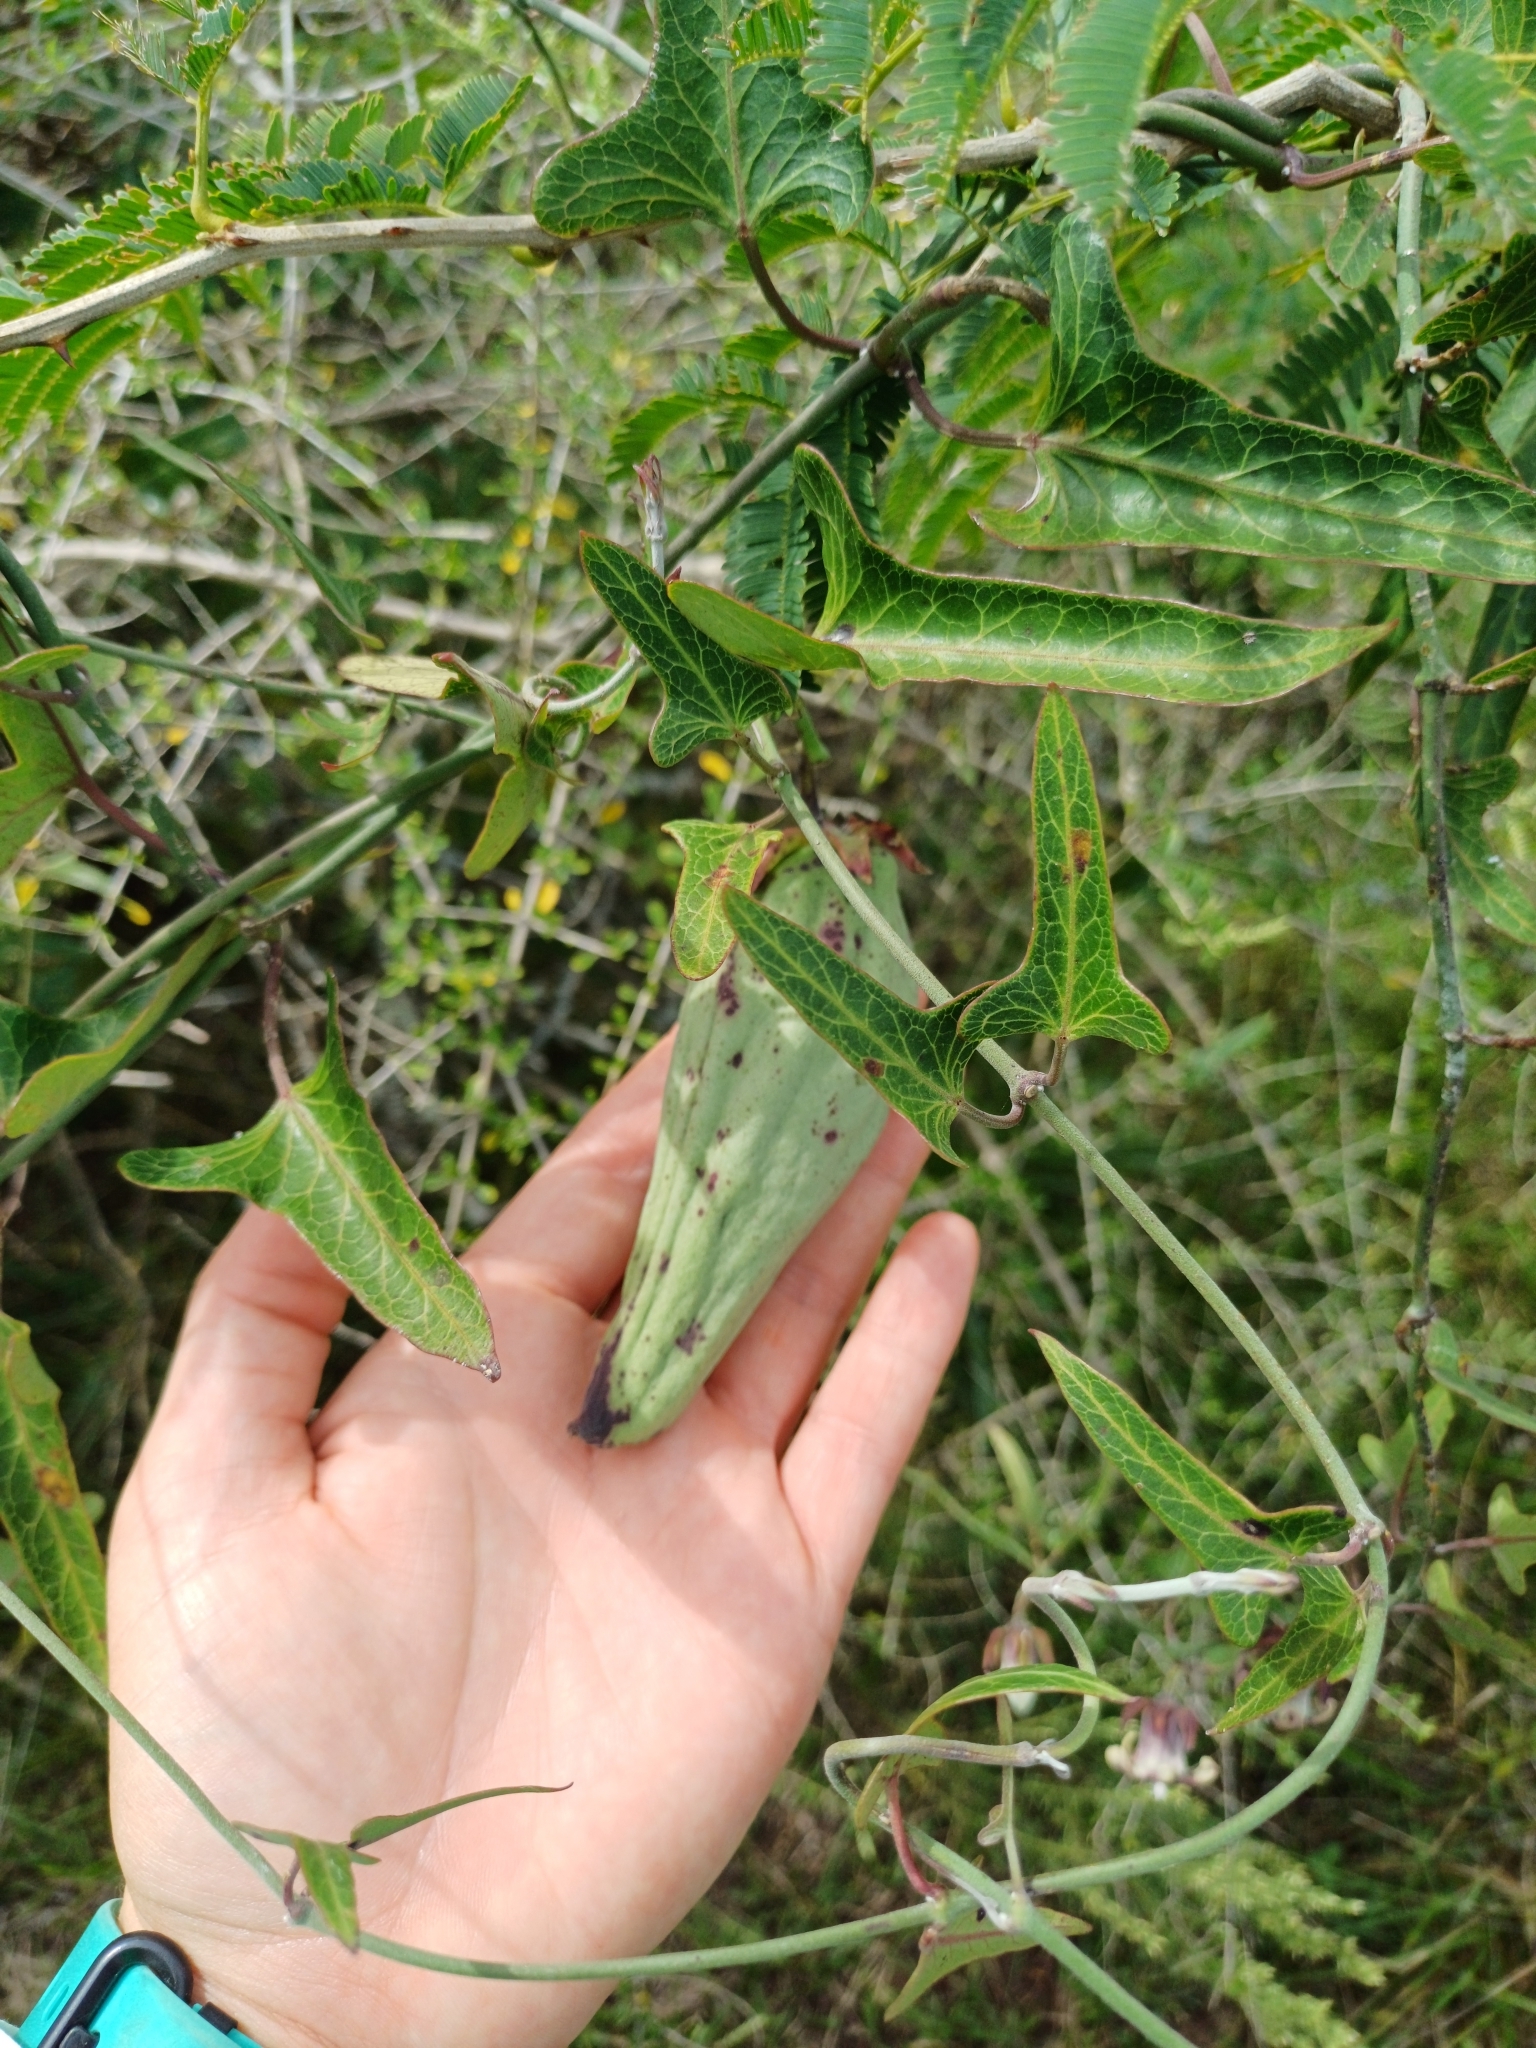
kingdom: Plantae
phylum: Tracheophyta
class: Magnoliopsida
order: Gentianales
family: Apocynaceae
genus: Araujia
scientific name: Araujia megapotamica
